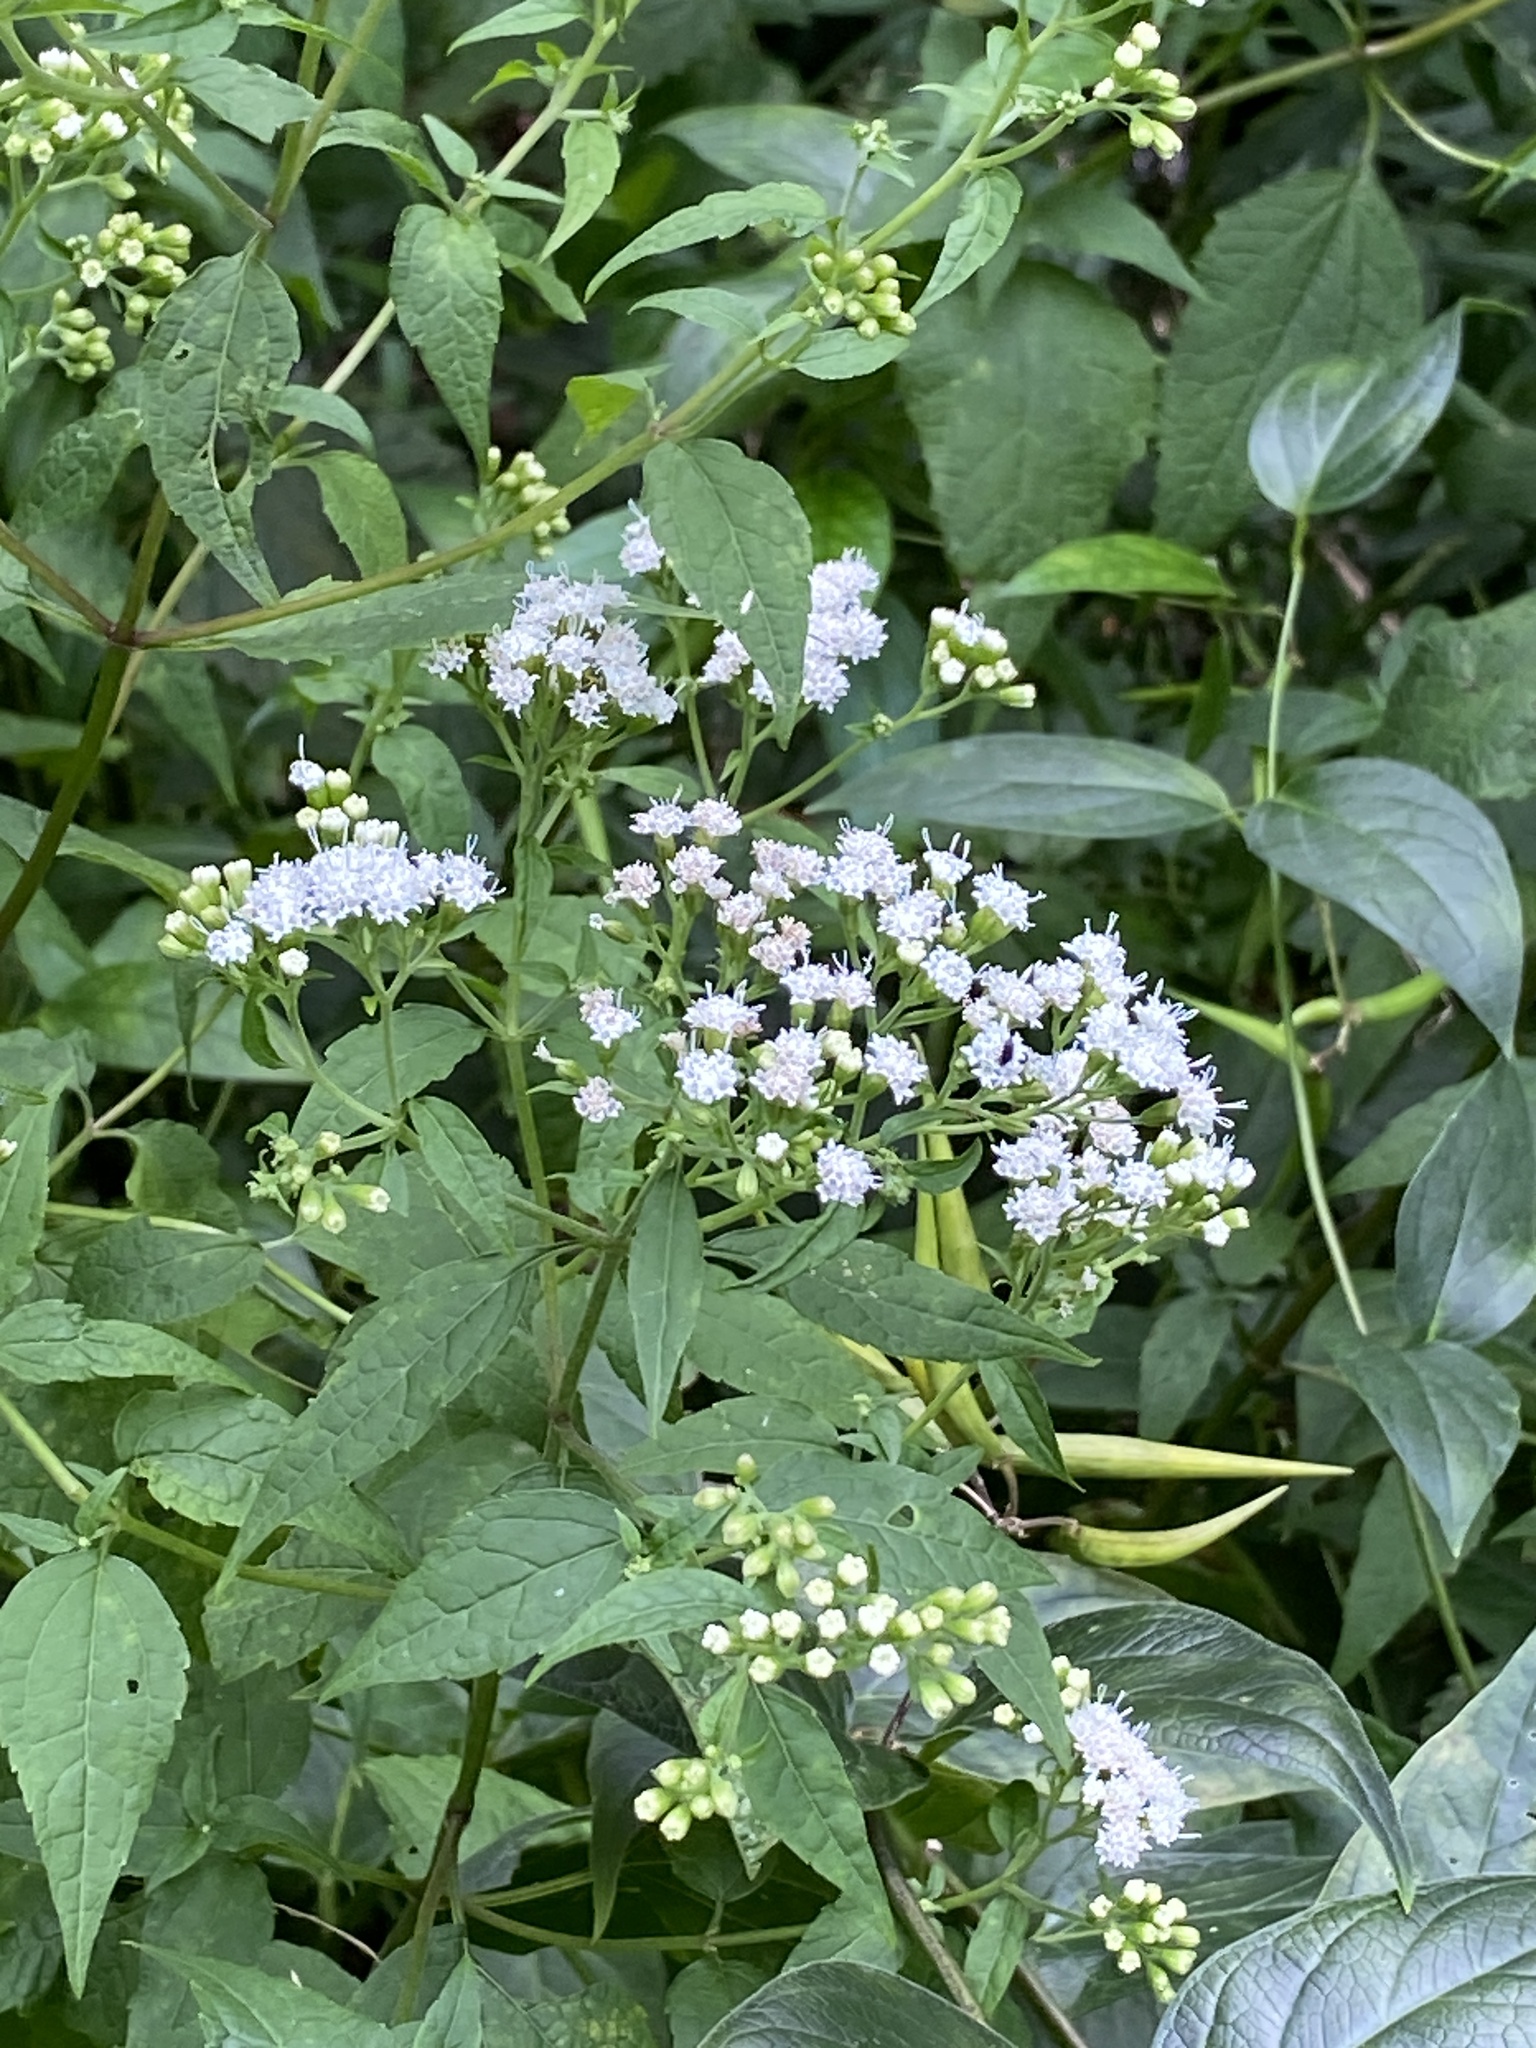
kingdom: Plantae
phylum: Tracheophyta
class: Magnoliopsida
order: Asterales
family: Asteraceae
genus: Ageratina
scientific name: Ageratina altissima
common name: White snakeroot
